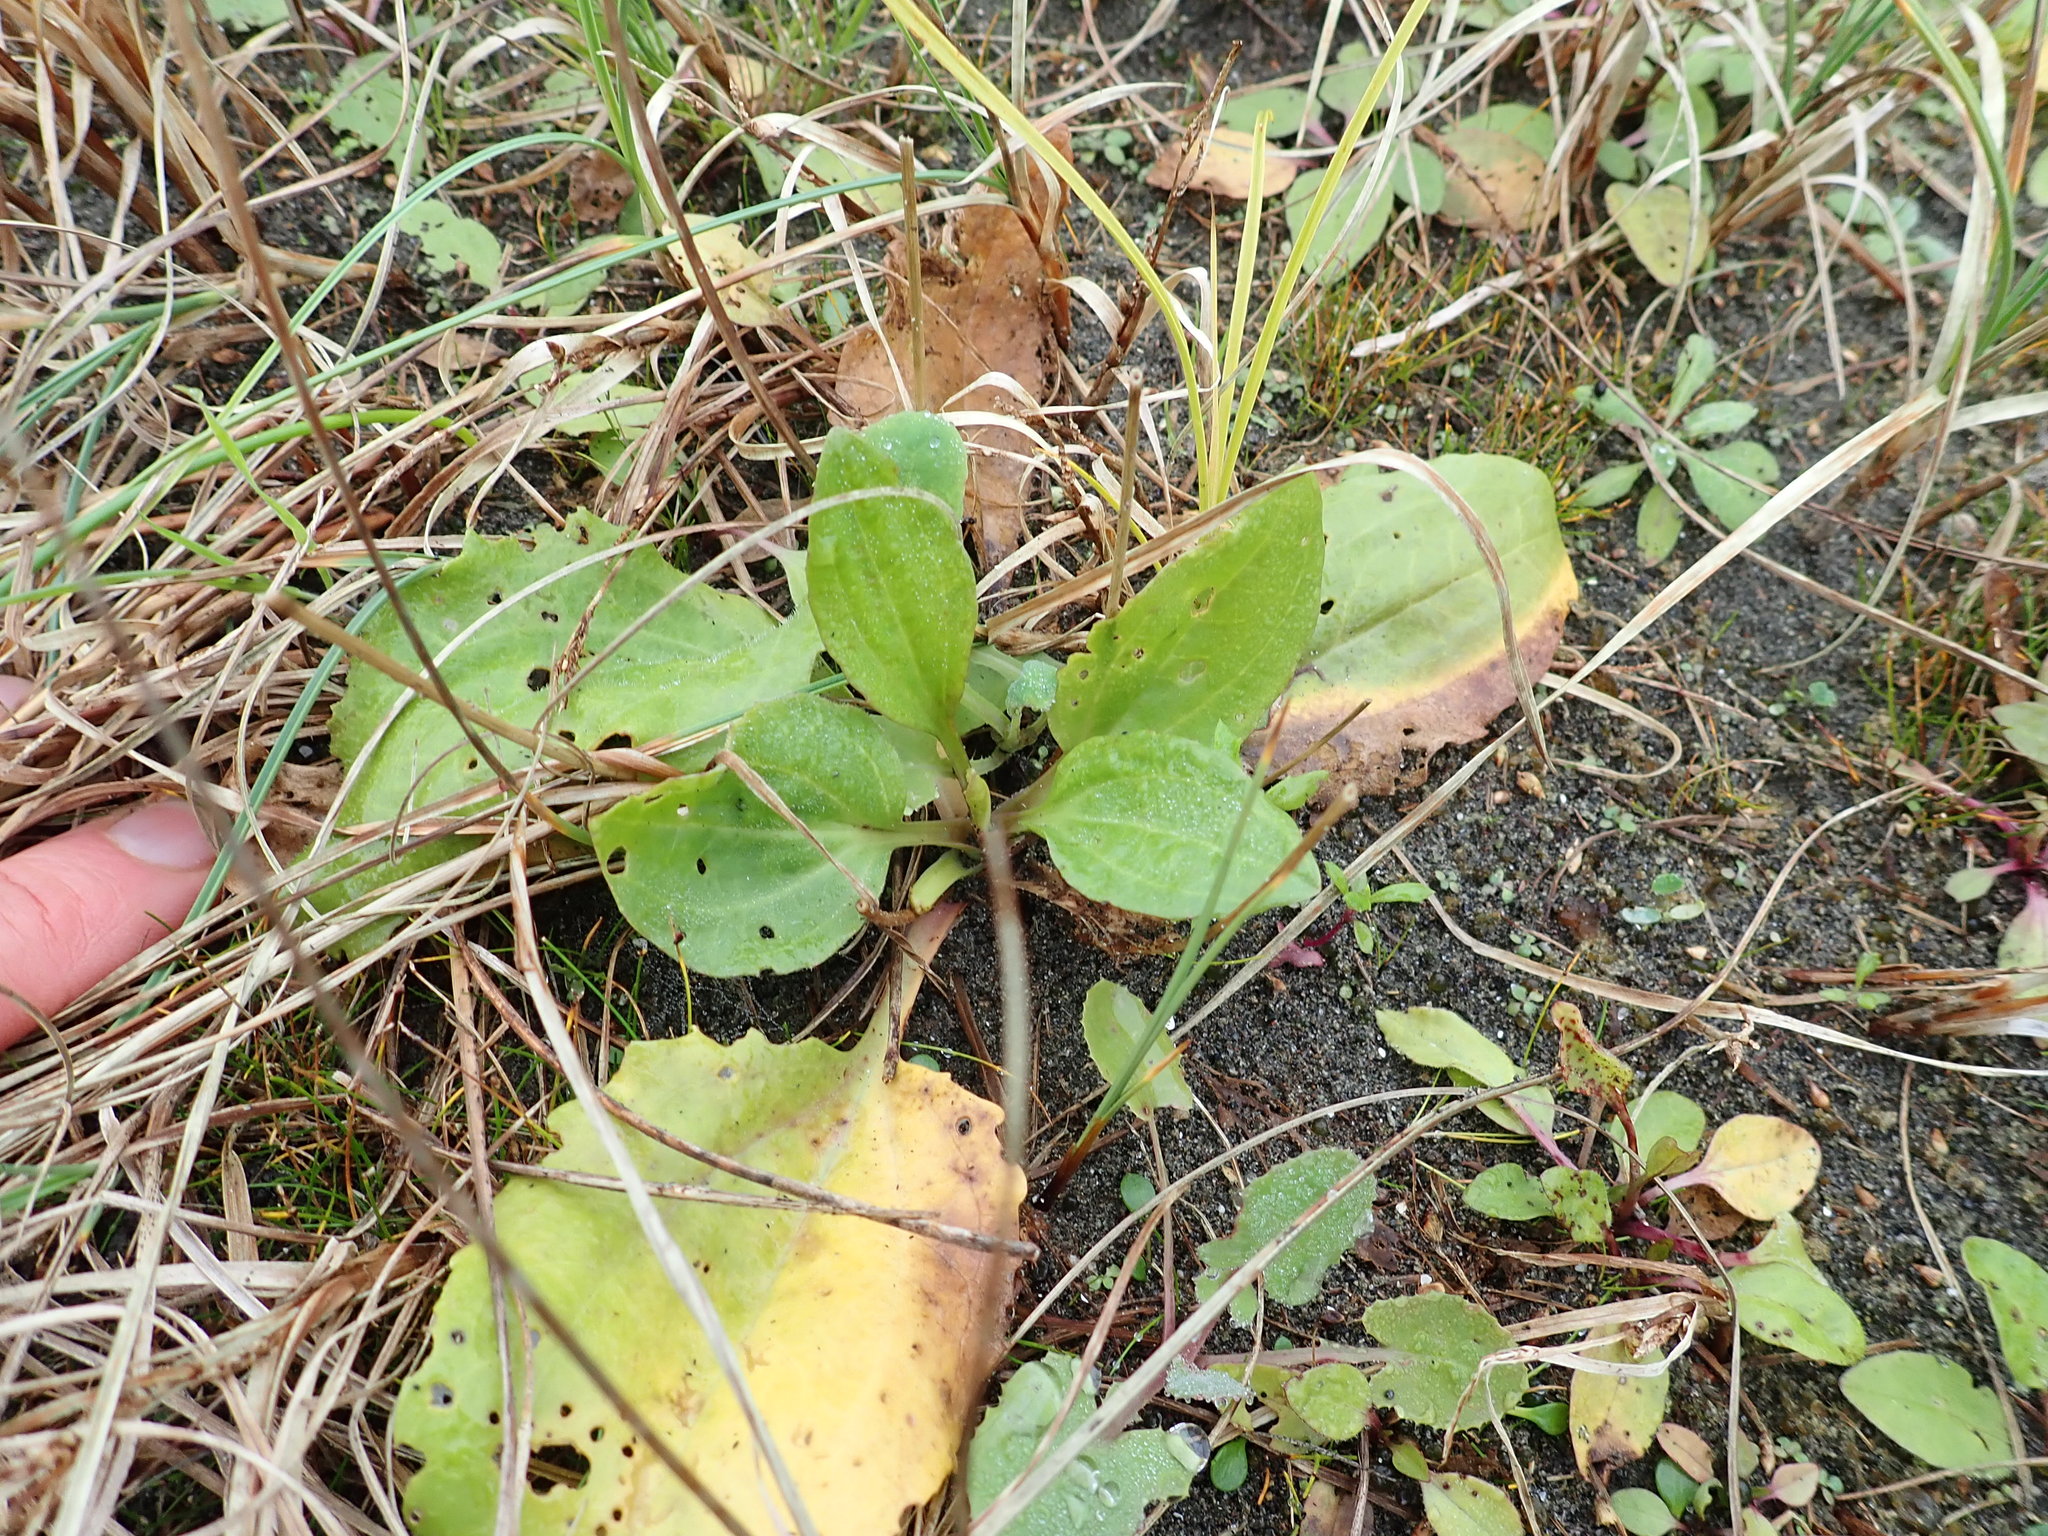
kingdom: Plantae
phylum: Tracheophyta
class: Magnoliopsida
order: Lamiales
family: Plantaginaceae
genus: Plantago
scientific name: Plantago australis
